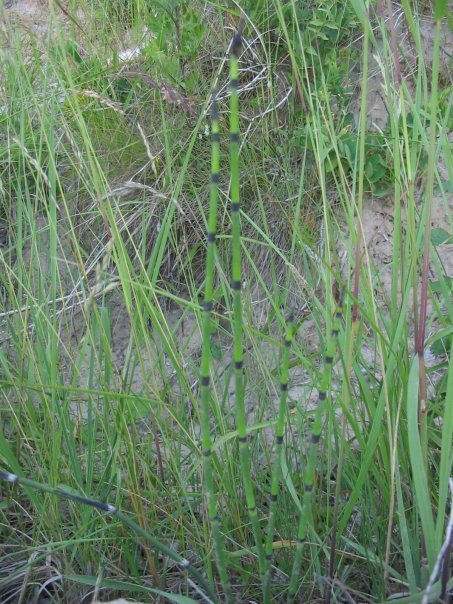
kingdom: Plantae
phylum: Tracheophyta
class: Polypodiopsida
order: Equisetales
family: Equisetaceae
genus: Equisetum
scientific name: Equisetum hyemale
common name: Rough horsetail
